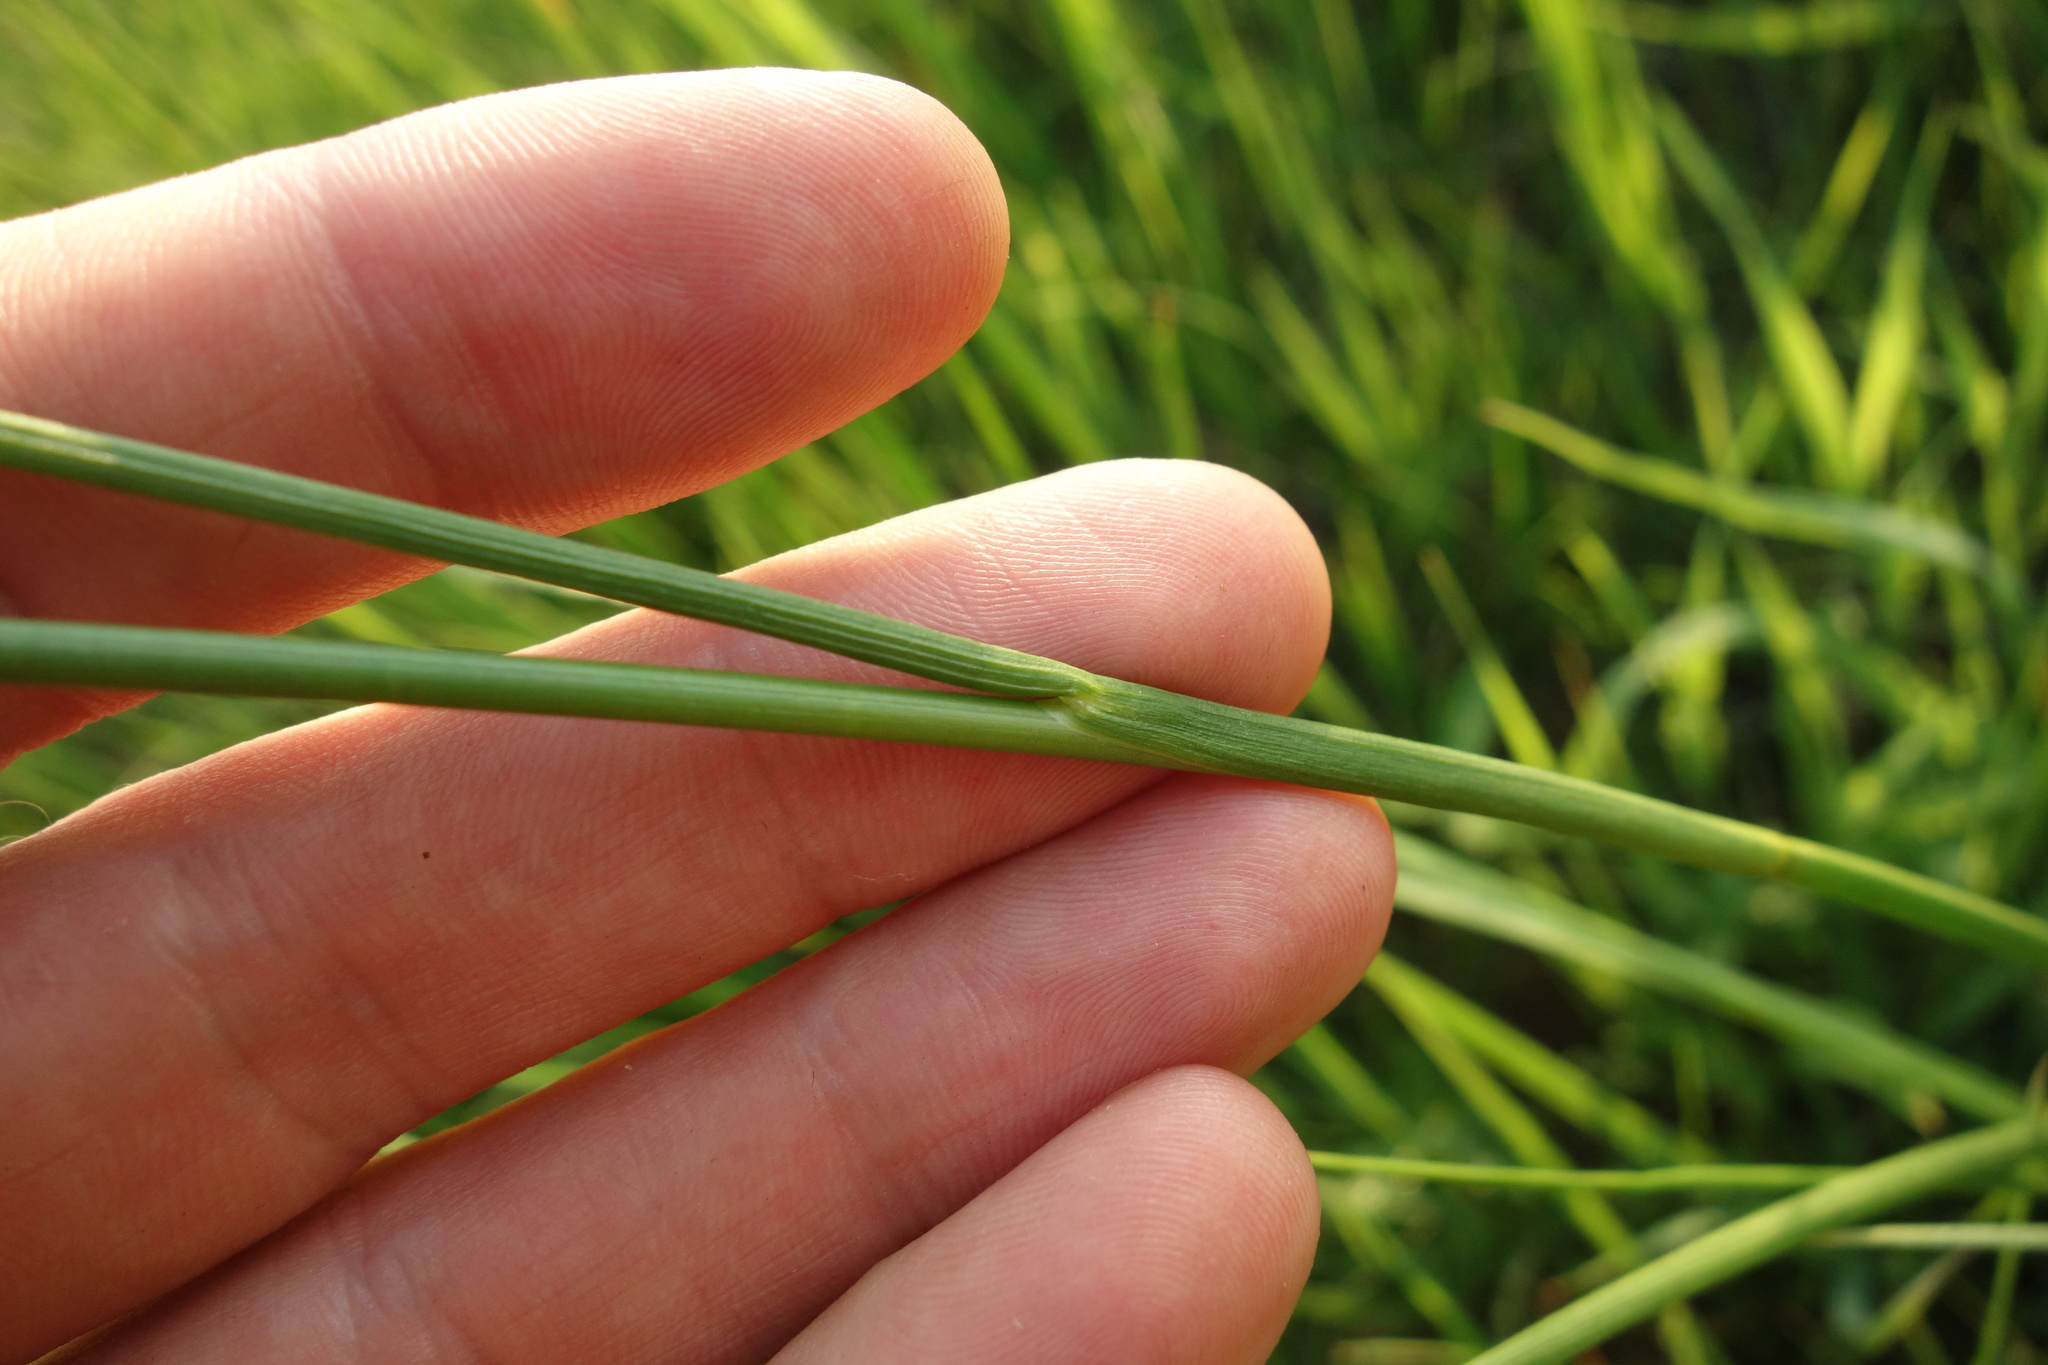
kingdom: Plantae
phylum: Tracheophyta
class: Liliopsida
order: Poales
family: Juncaceae
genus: Juncus
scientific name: Juncus atratus
